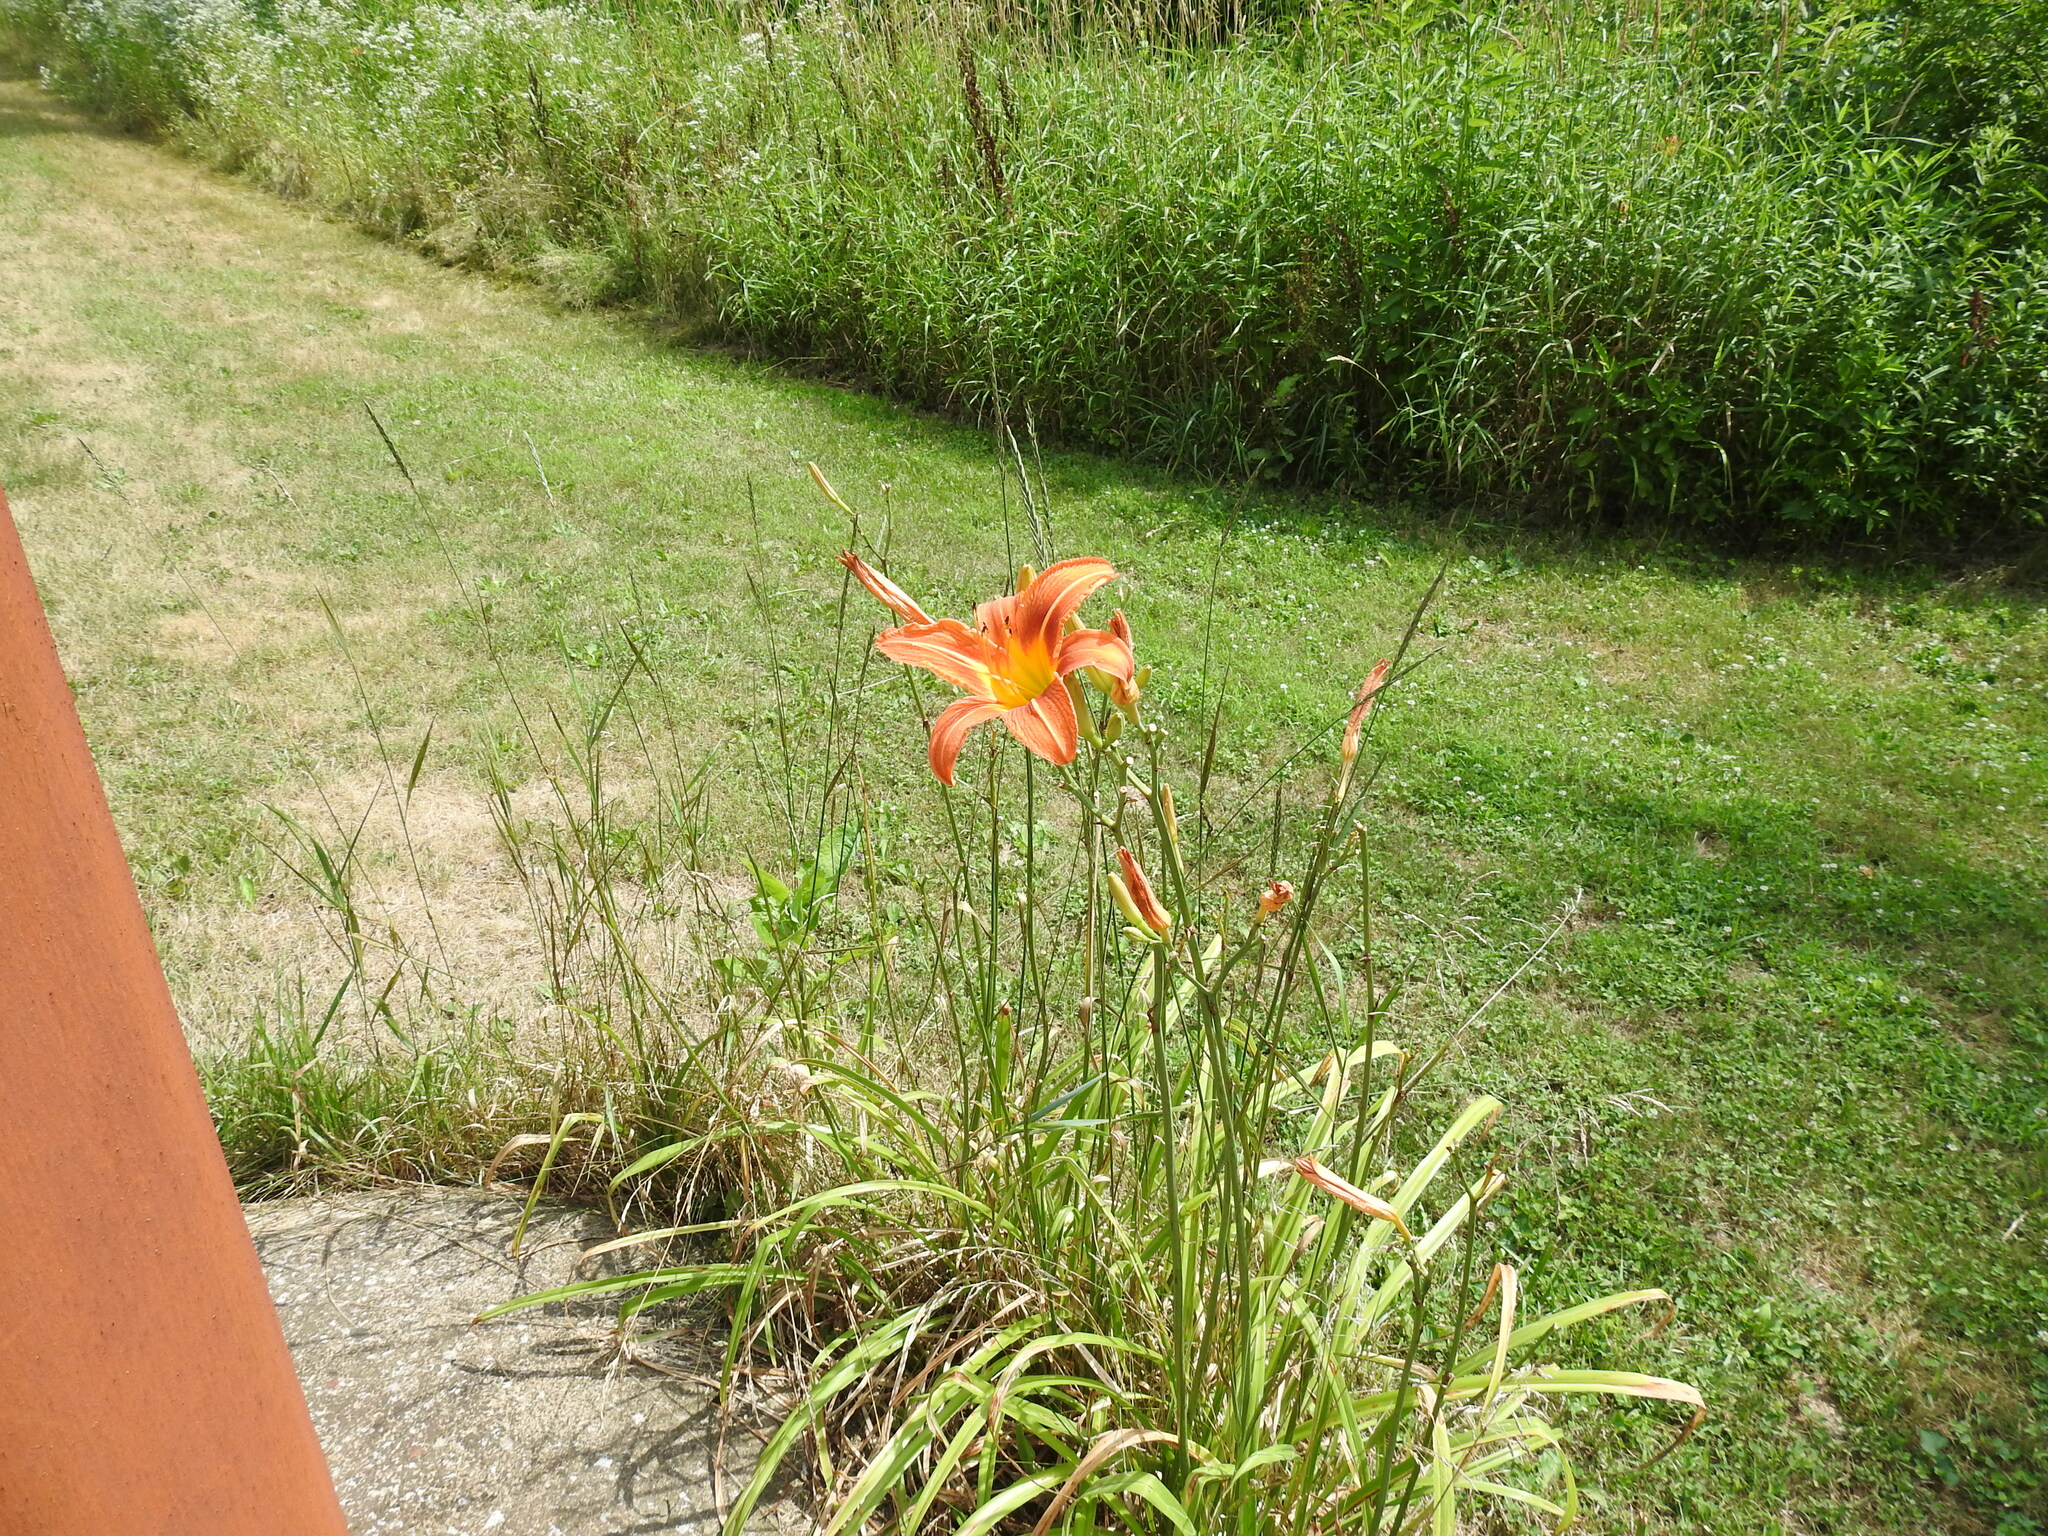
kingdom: Plantae
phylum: Tracheophyta
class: Liliopsida
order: Asparagales
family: Asphodelaceae
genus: Hemerocallis
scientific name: Hemerocallis fulva
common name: Orange day-lily
